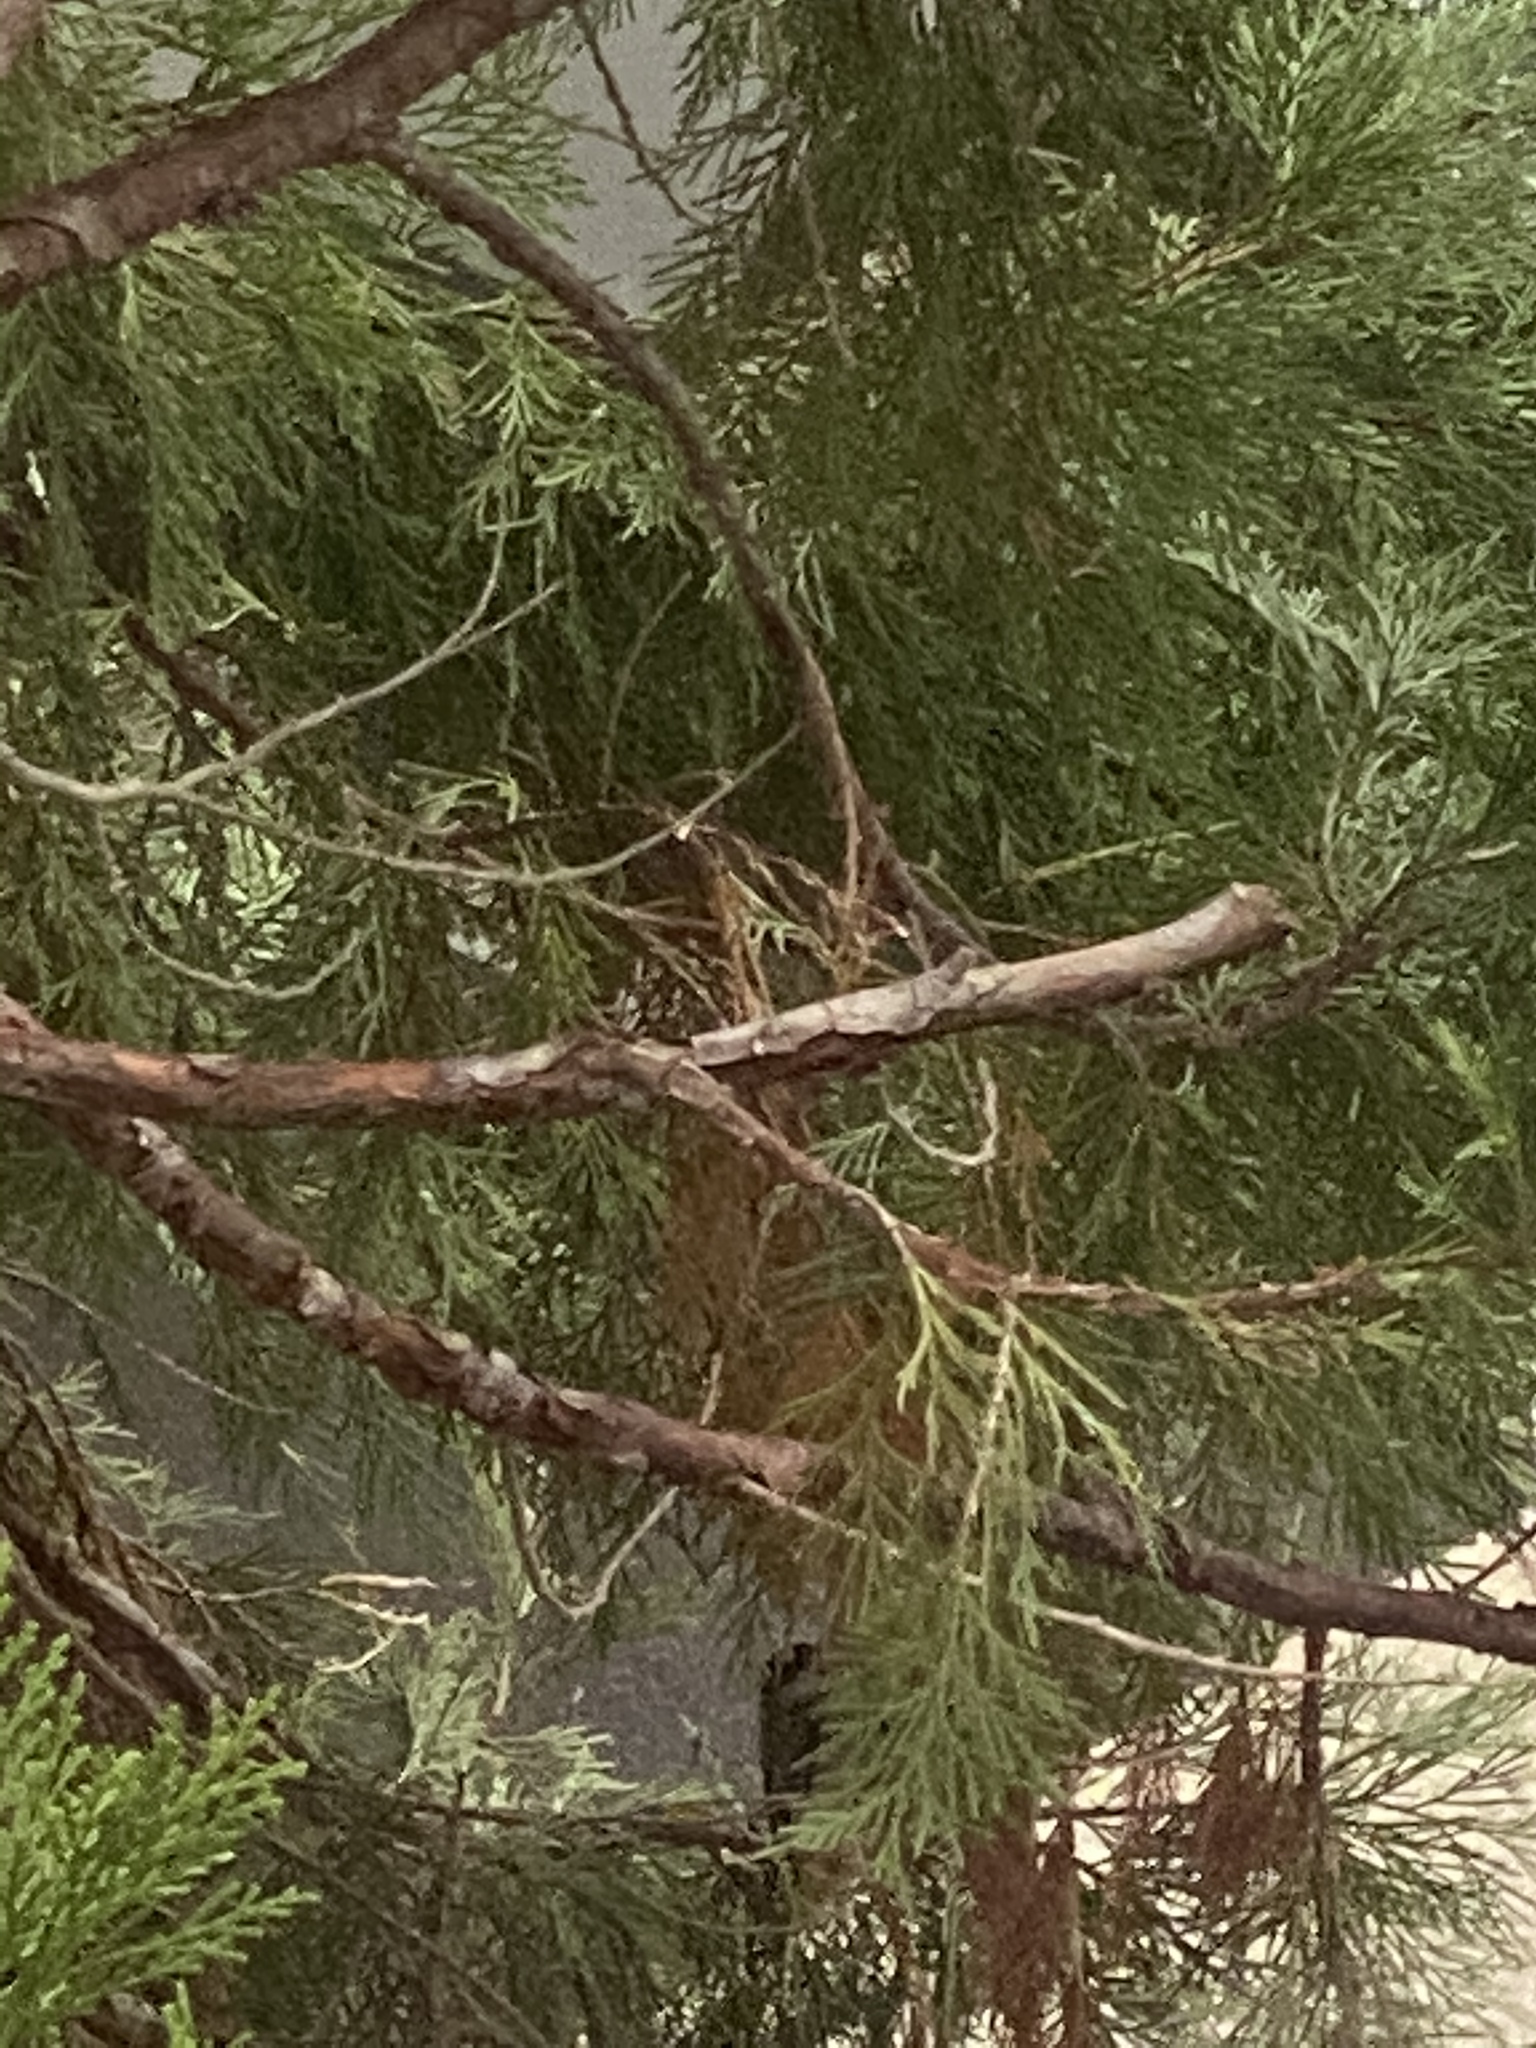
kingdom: Animalia
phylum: Chordata
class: Aves
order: Passeriformes
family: Paridae
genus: Poecile
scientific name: Poecile atricapillus
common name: Black-capped chickadee
